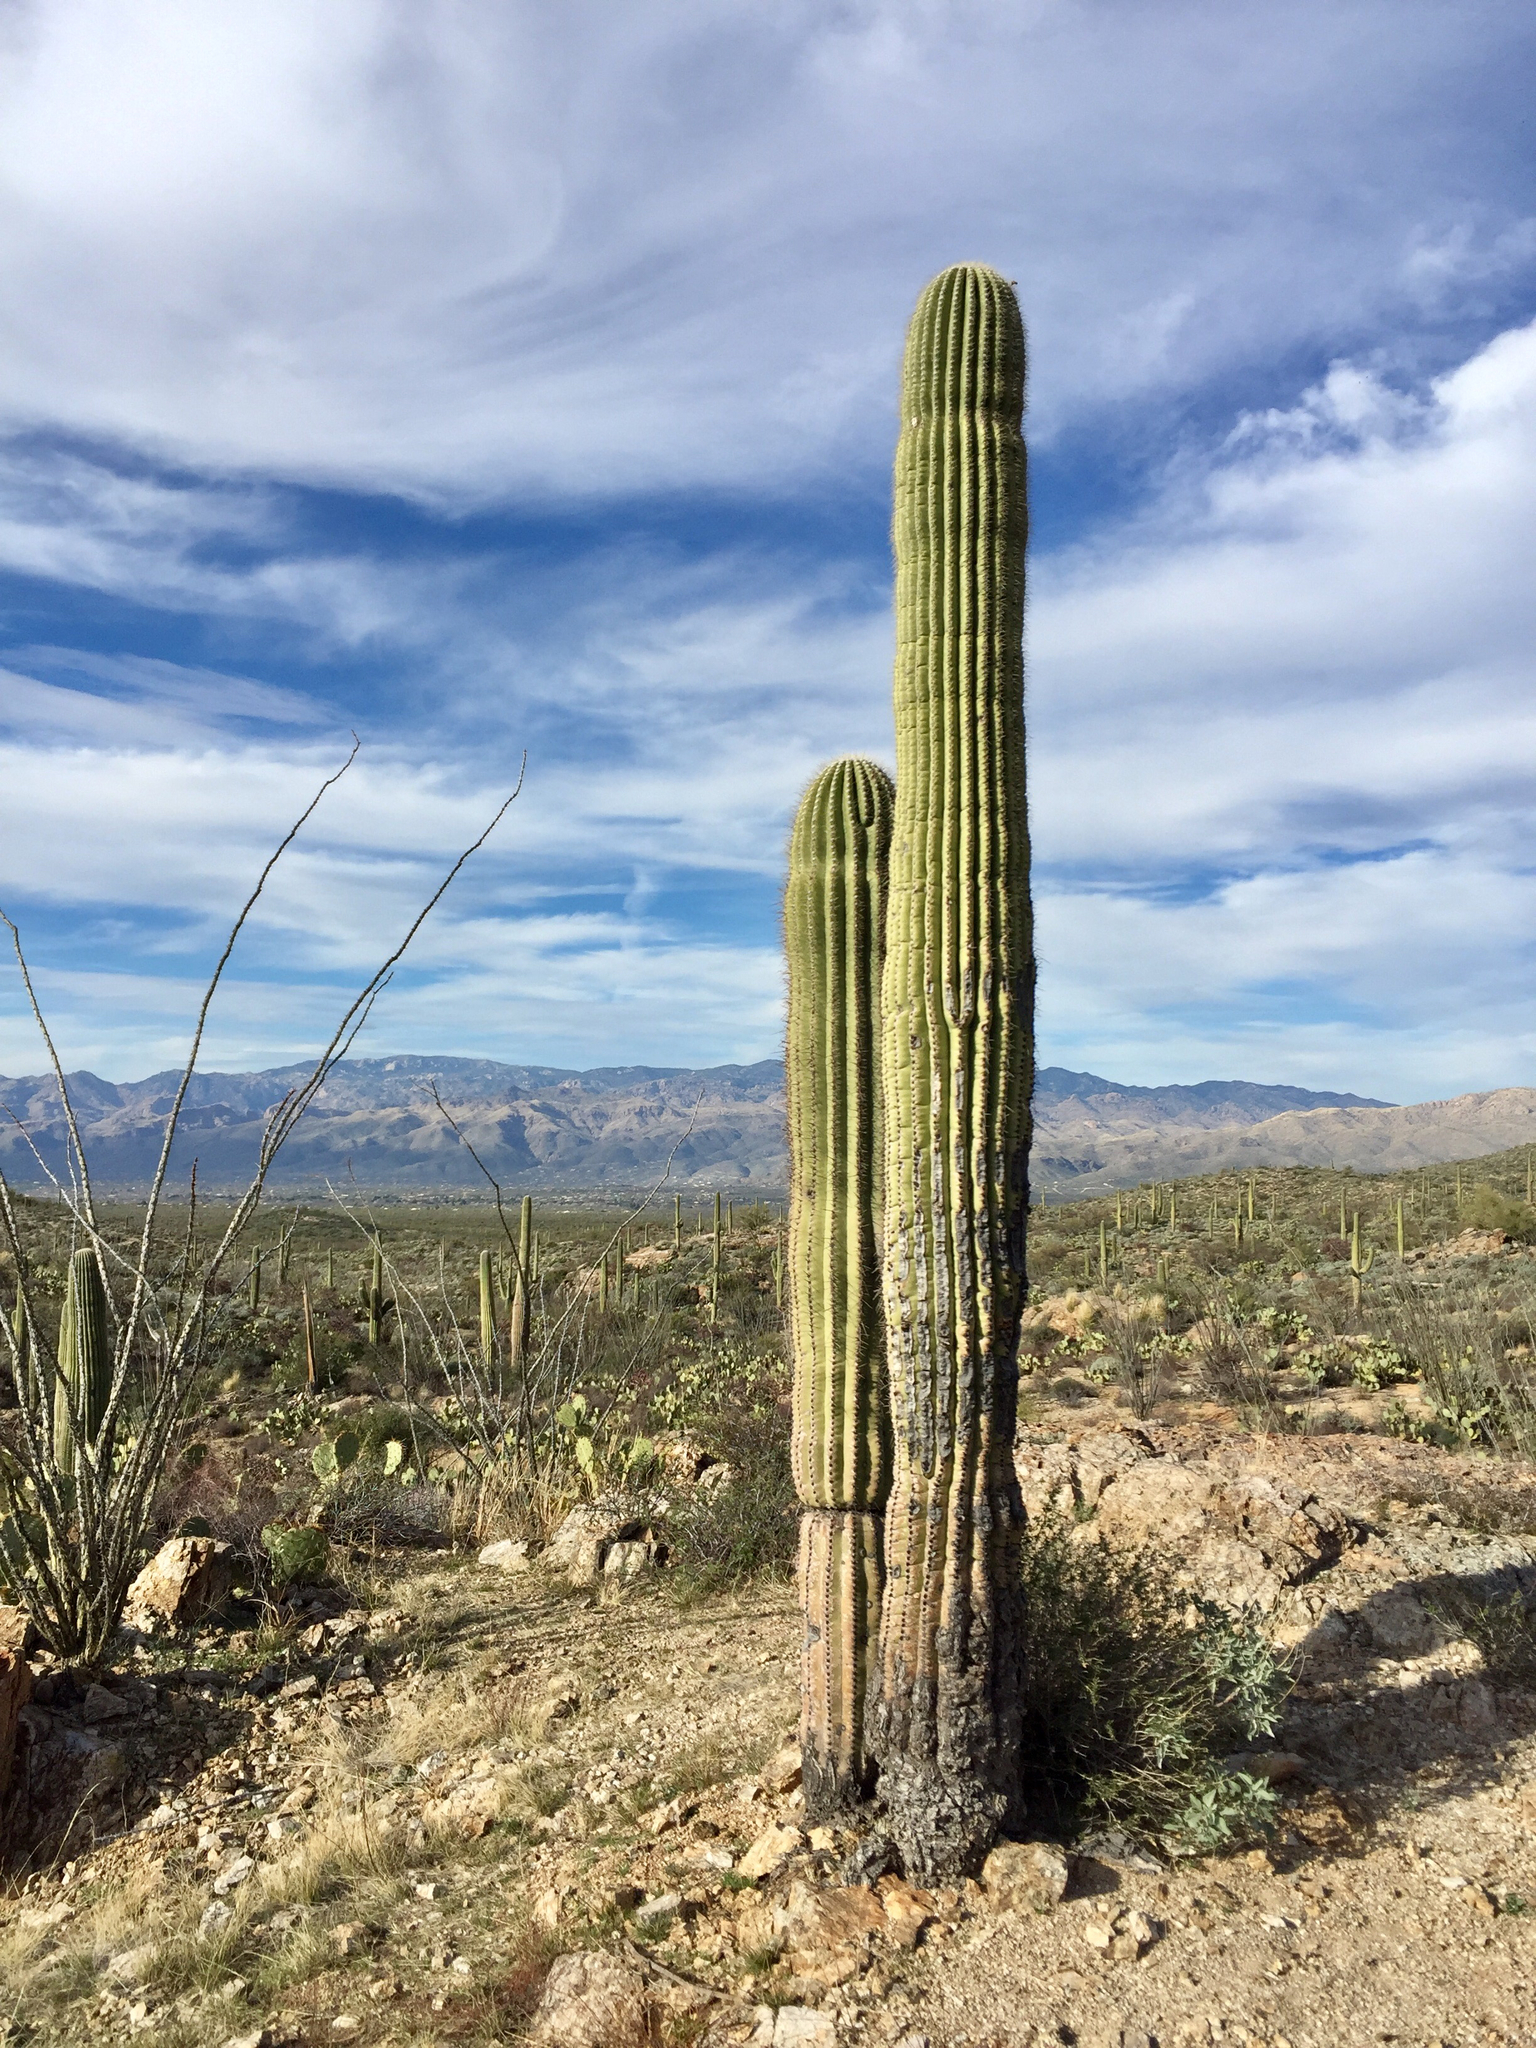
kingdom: Plantae
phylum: Tracheophyta
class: Magnoliopsida
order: Caryophyllales
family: Cactaceae
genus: Carnegiea
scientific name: Carnegiea gigantea
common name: Saguaro
